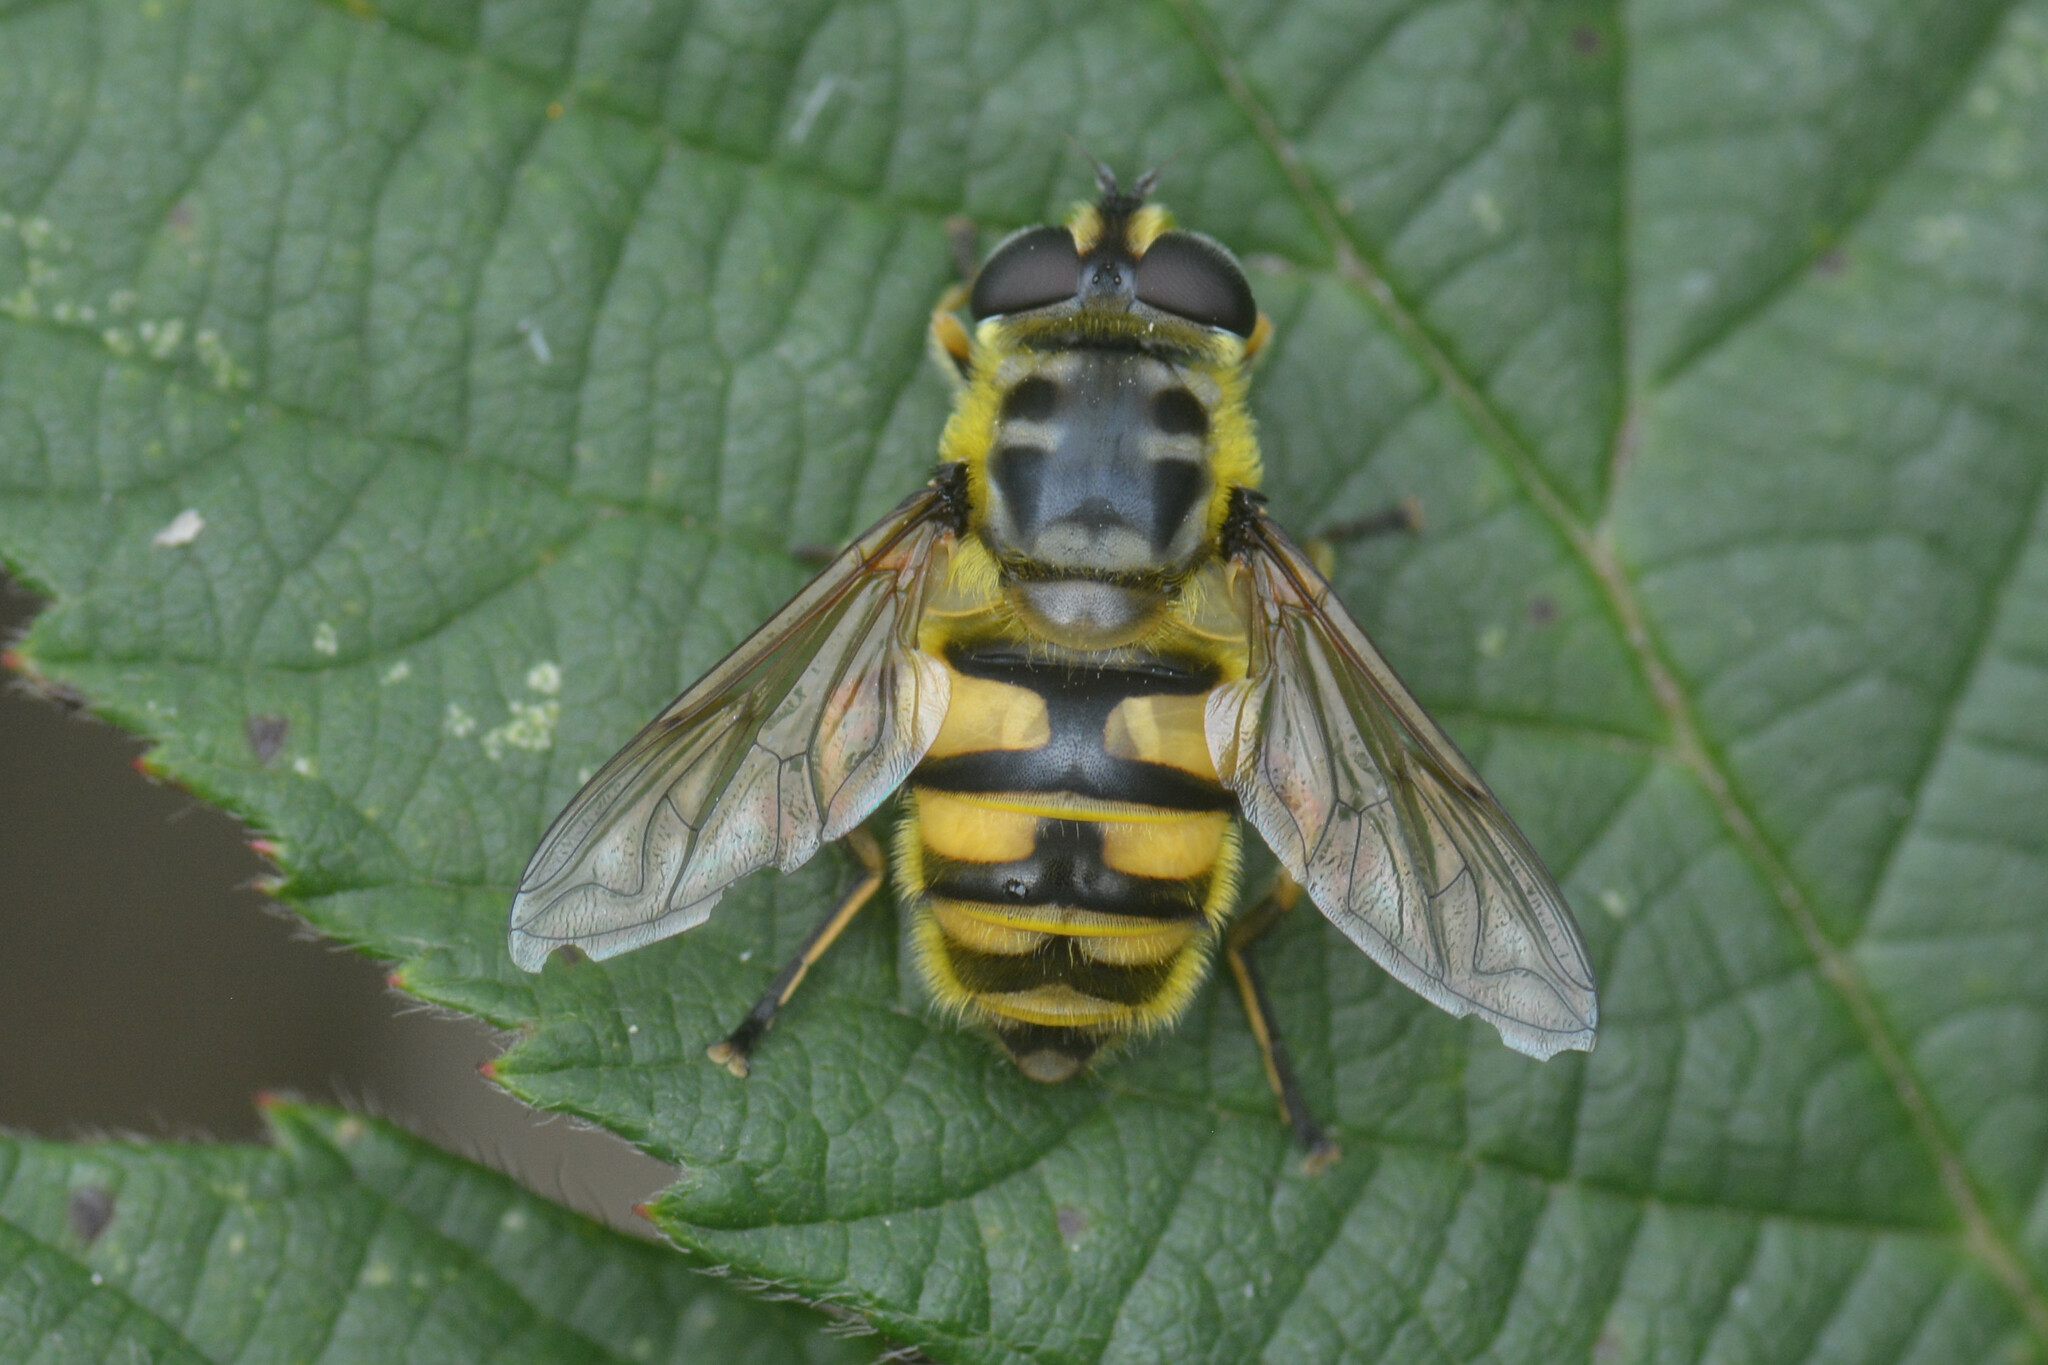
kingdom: Animalia
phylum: Arthropoda
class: Insecta
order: Diptera
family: Syrphidae
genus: Myathropa
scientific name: Myathropa florea
